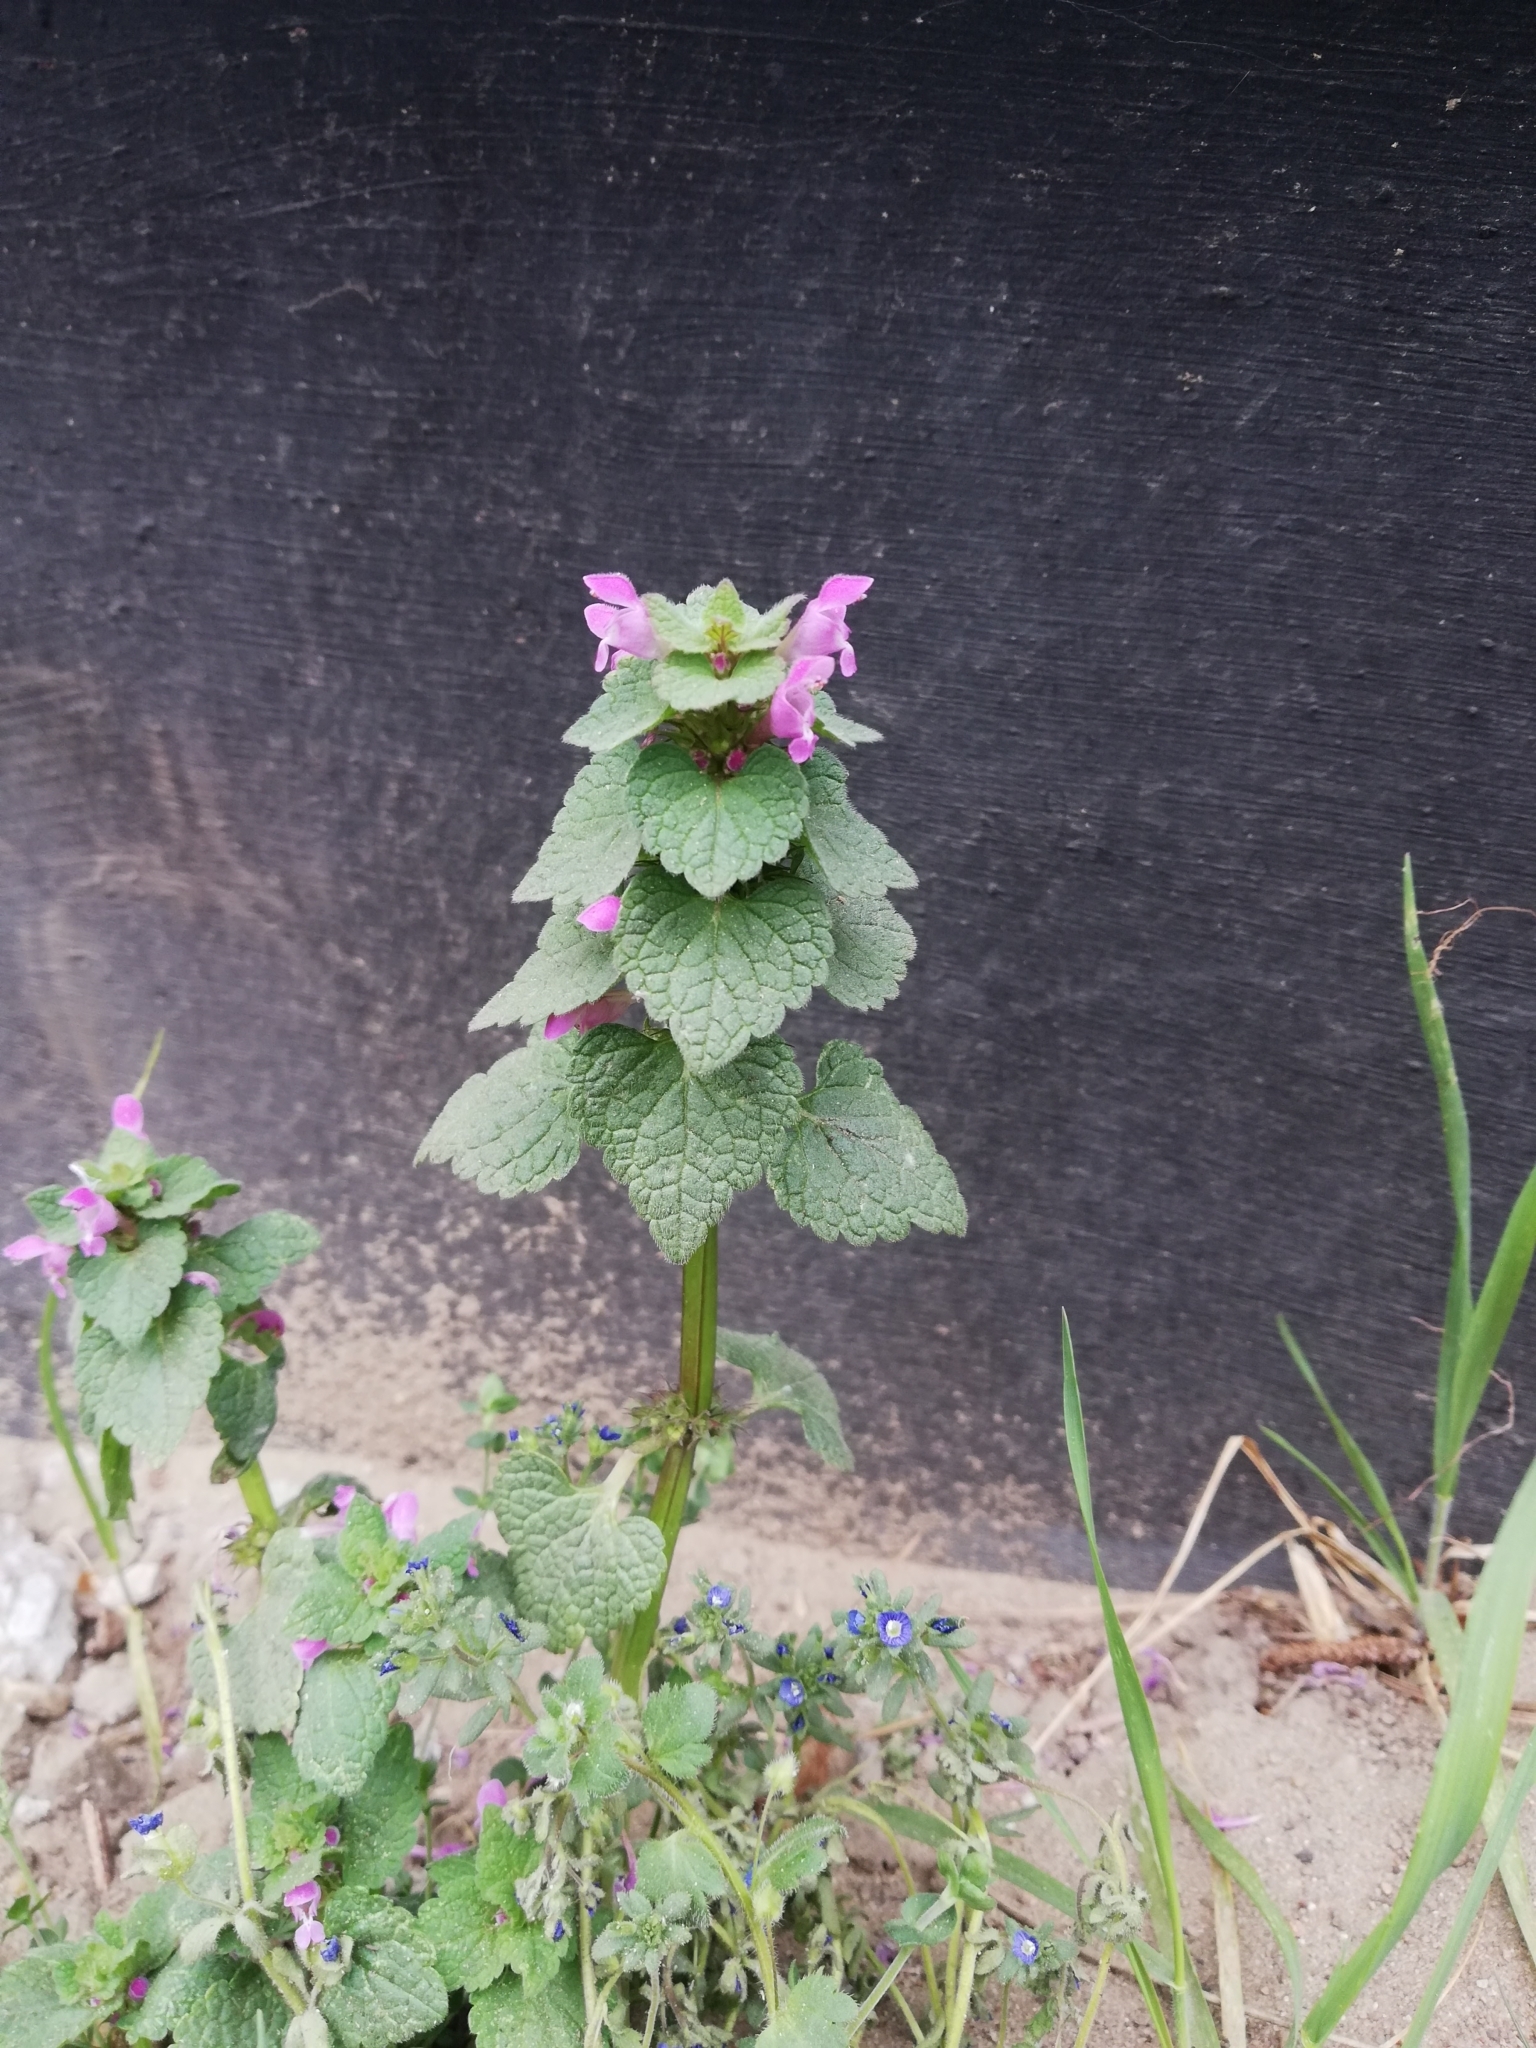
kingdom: Plantae
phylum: Tracheophyta
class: Magnoliopsida
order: Lamiales
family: Lamiaceae
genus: Lamium
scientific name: Lamium purpureum
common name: Red dead-nettle
